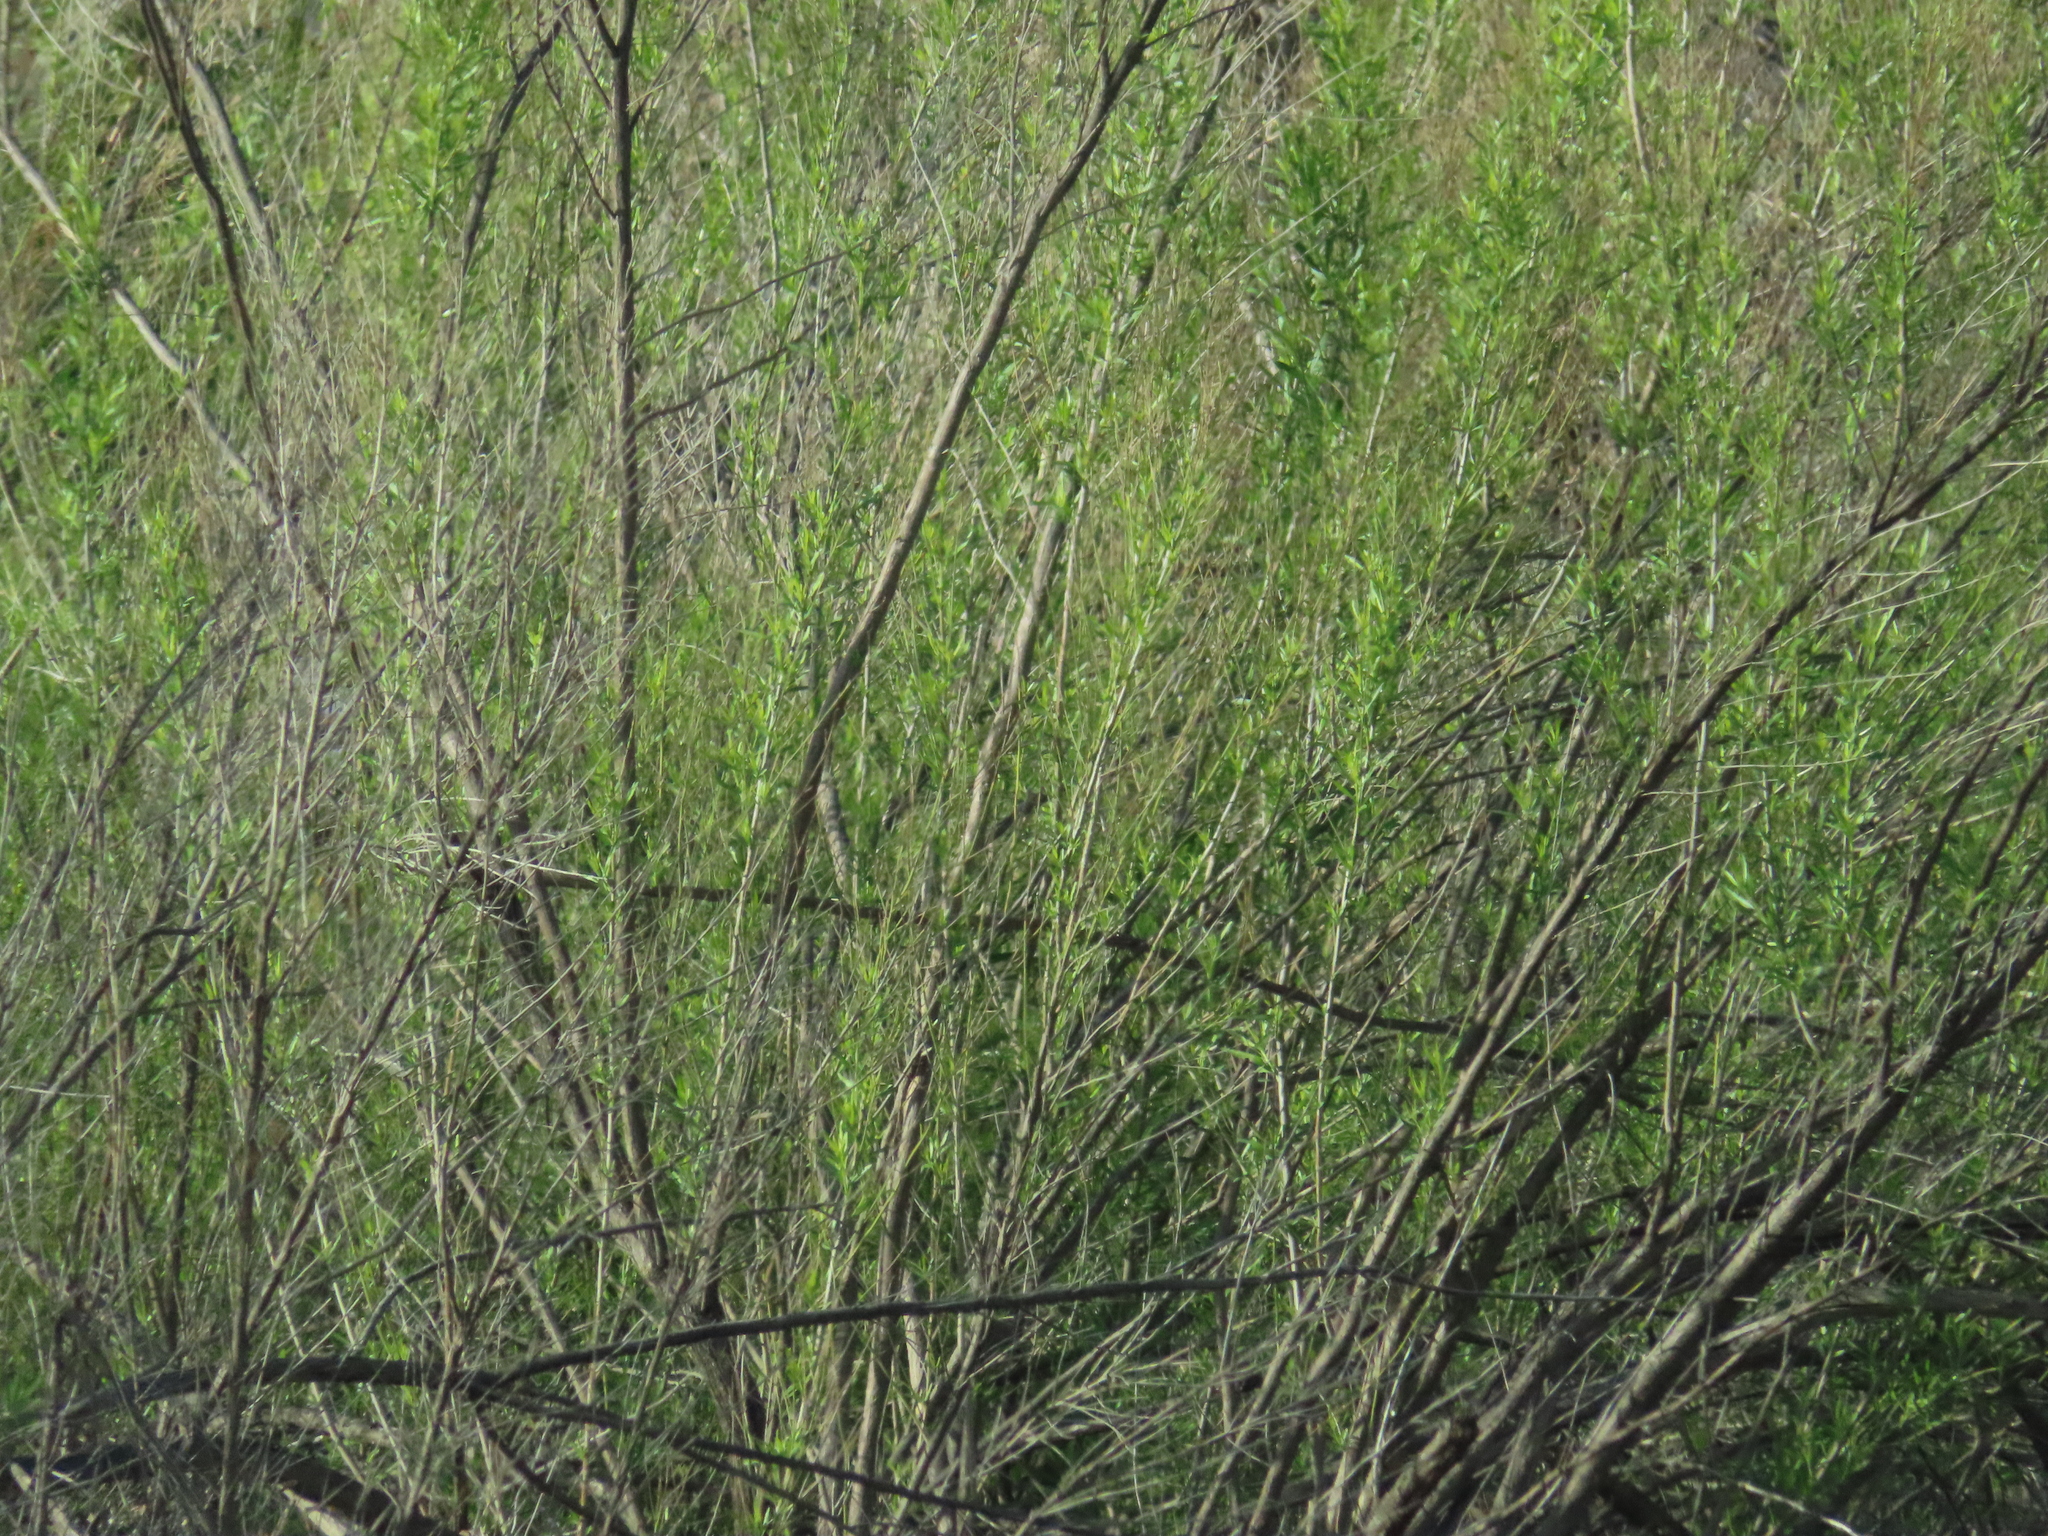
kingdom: Plantae
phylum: Tracheophyta
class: Magnoliopsida
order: Asterales
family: Asteraceae
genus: Baccharis
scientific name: Baccharis neglecta
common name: Roosevelt-weed
